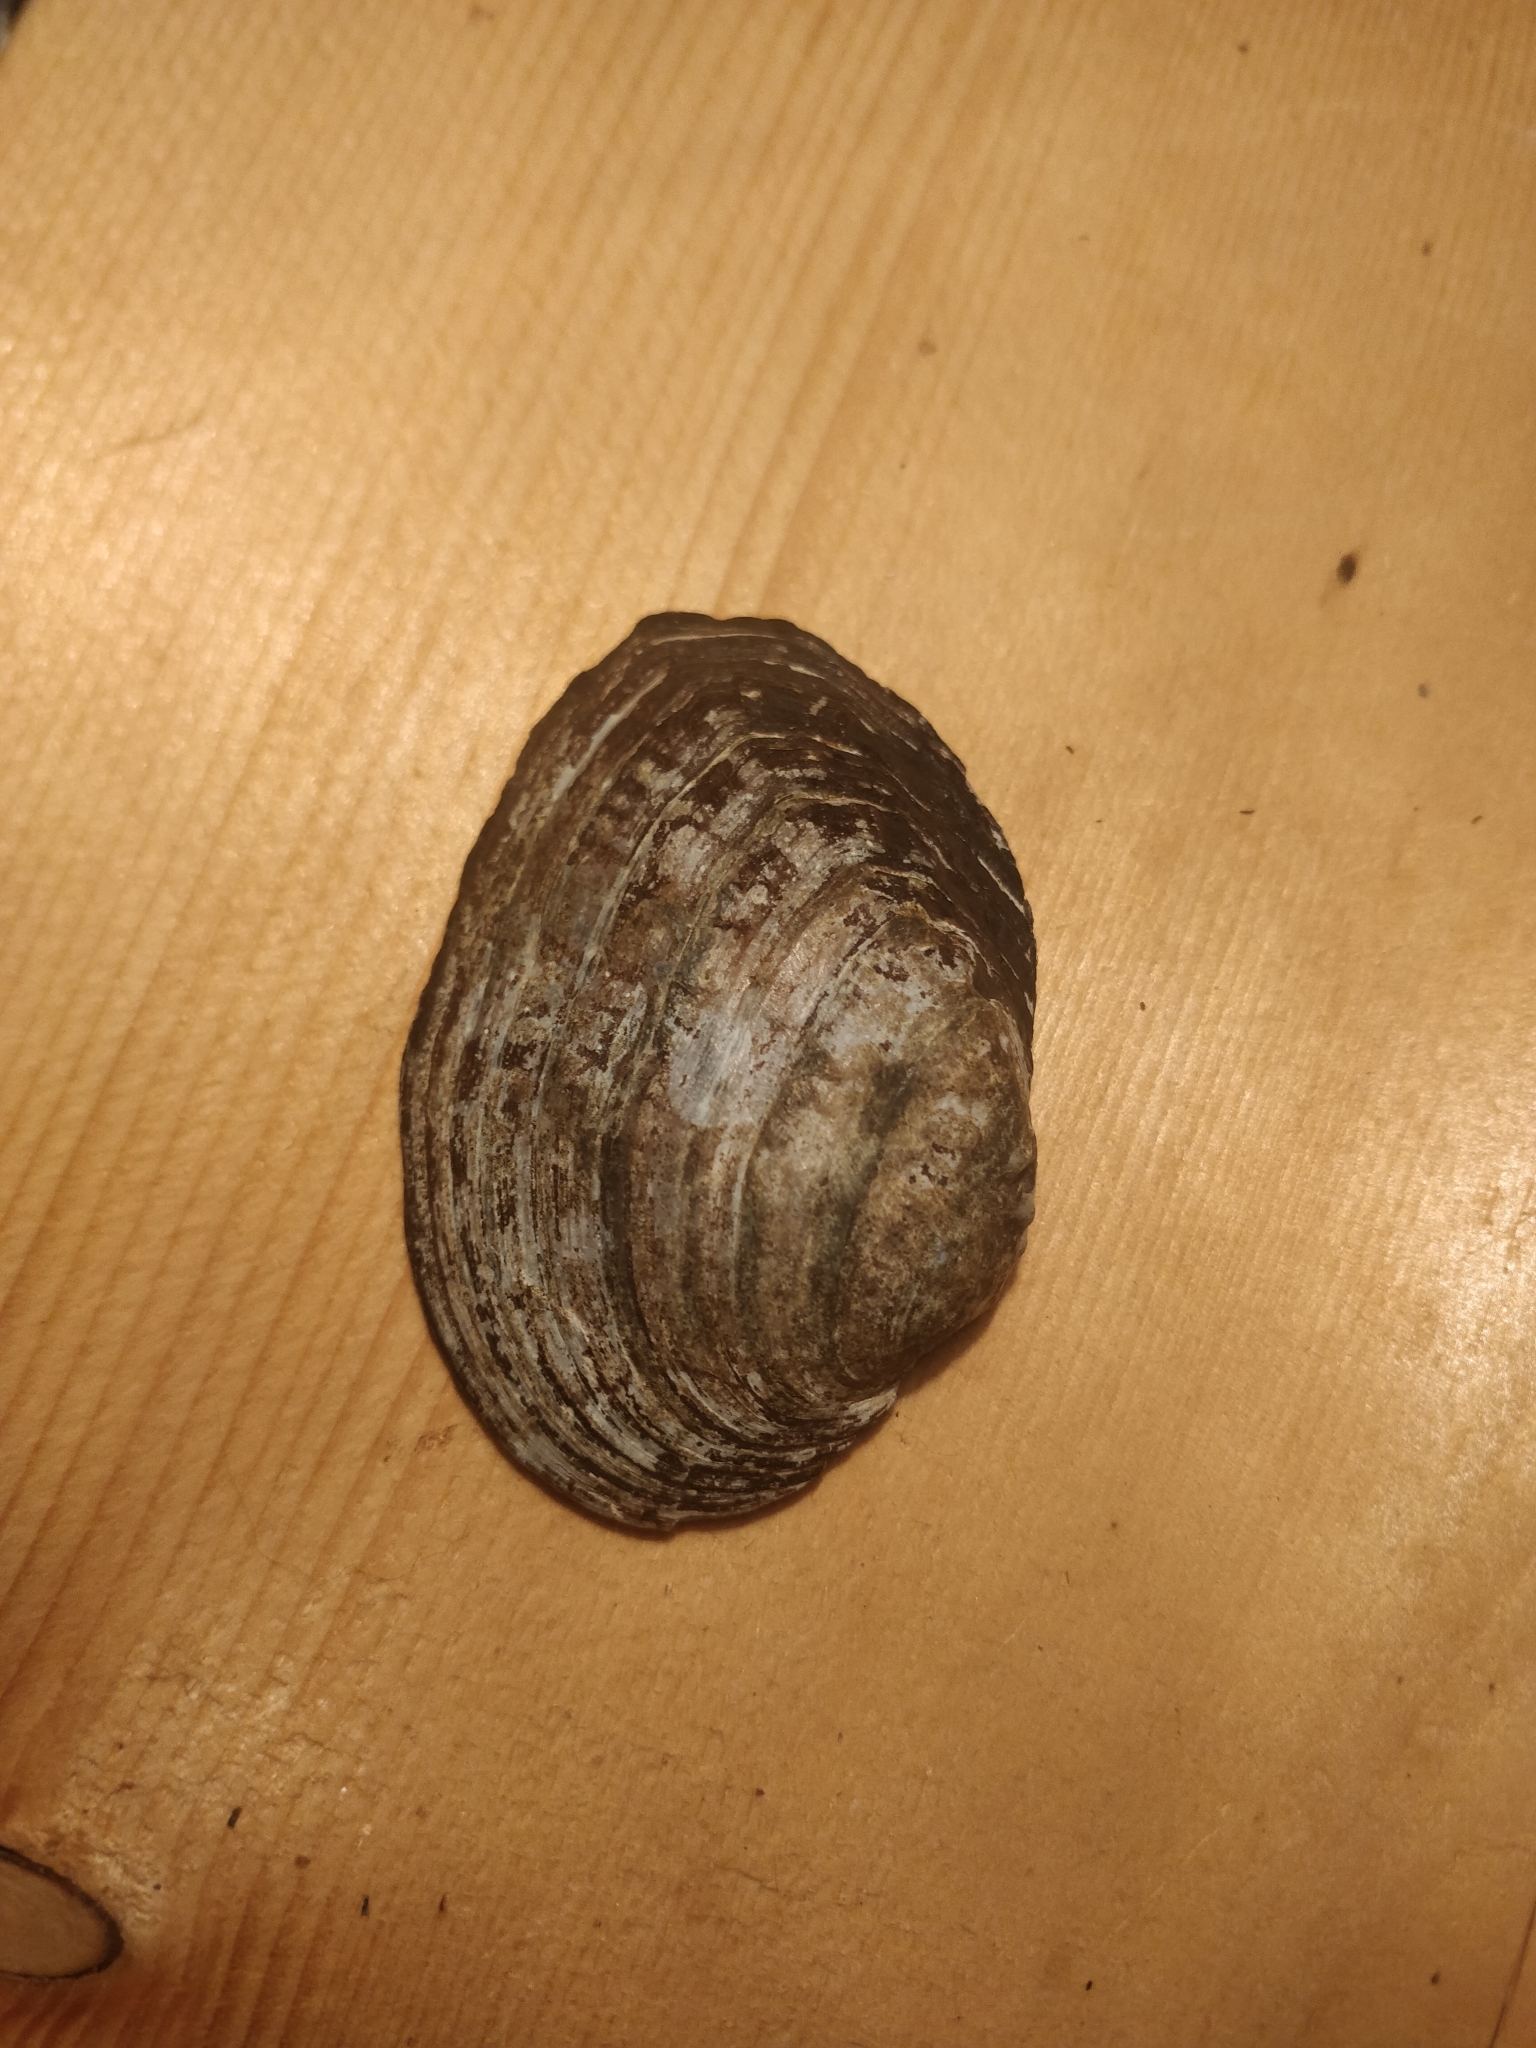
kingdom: Animalia
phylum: Mollusca
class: Bivalvia
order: Unionida
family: Unionidae
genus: Arcidens
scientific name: Arcidens confragosus
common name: Rock pocketbook
